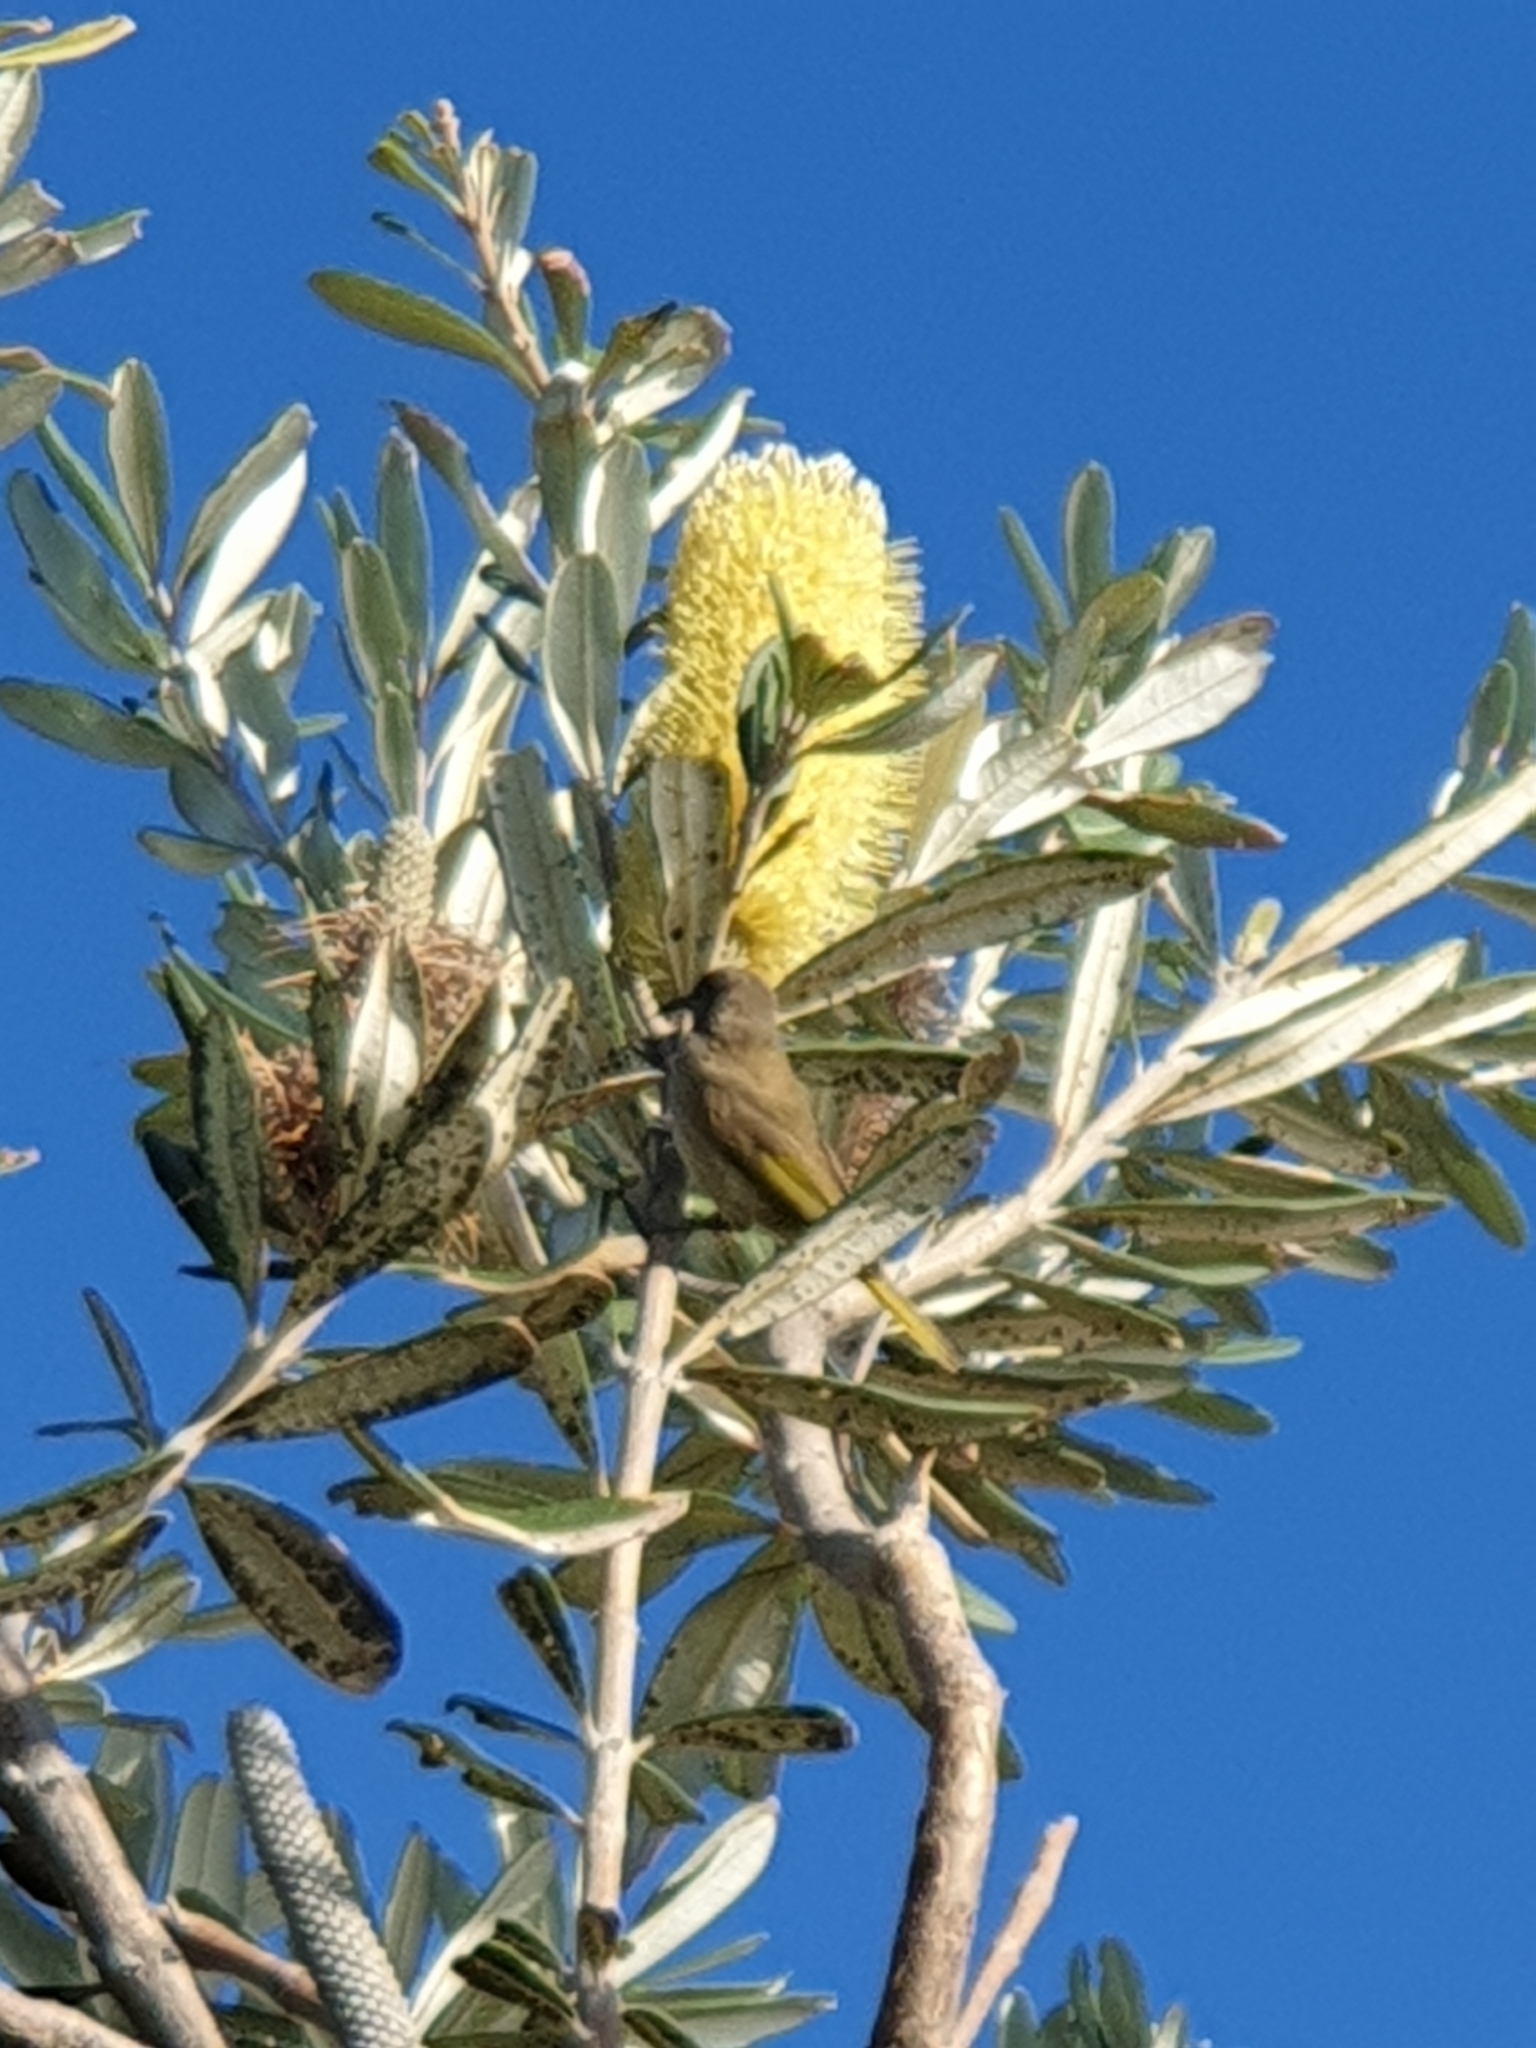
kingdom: Animalia
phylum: Chordata
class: Aves
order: Passeriformes
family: Meliphagidae
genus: Lichmera
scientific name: Lichmera indistincta
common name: Brown honeyeater
